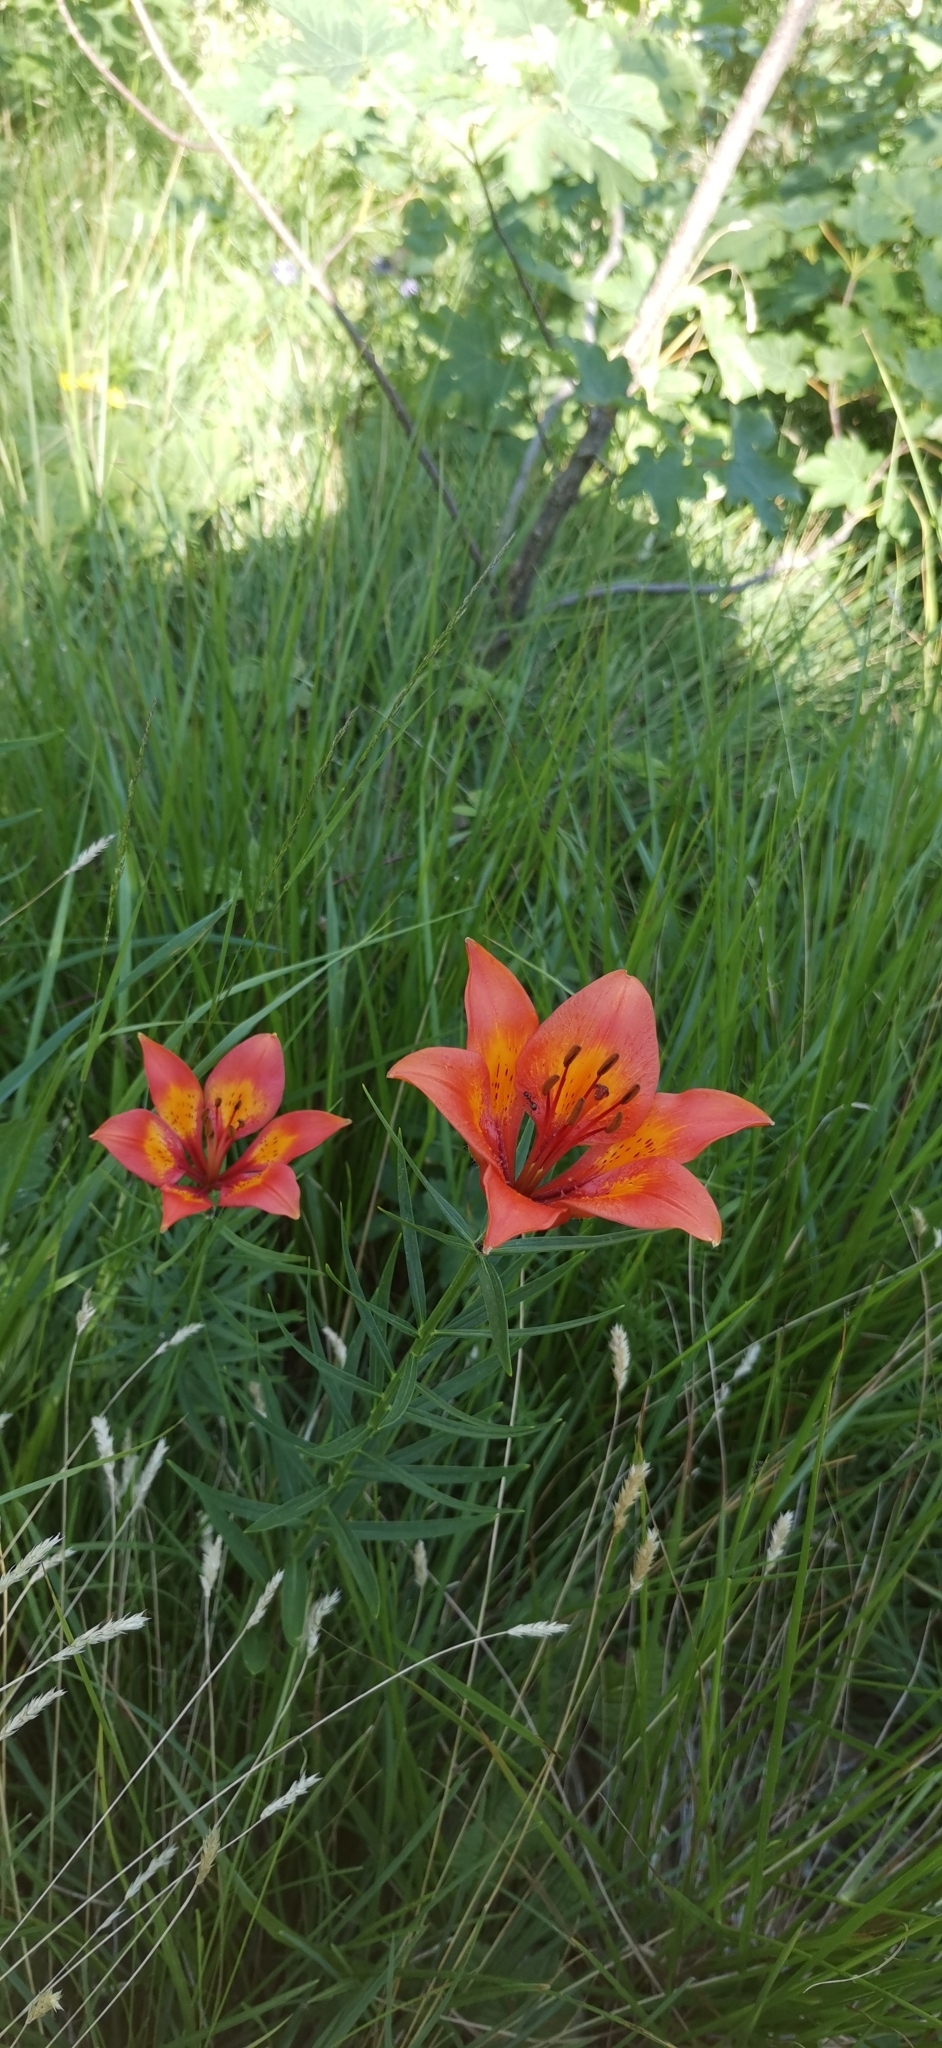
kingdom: Plantae
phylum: Tracheophyta
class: Liliopsida
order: Liliales
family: Liliaceae
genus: Lilium
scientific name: Lilium bulbiferum
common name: Orange lily
